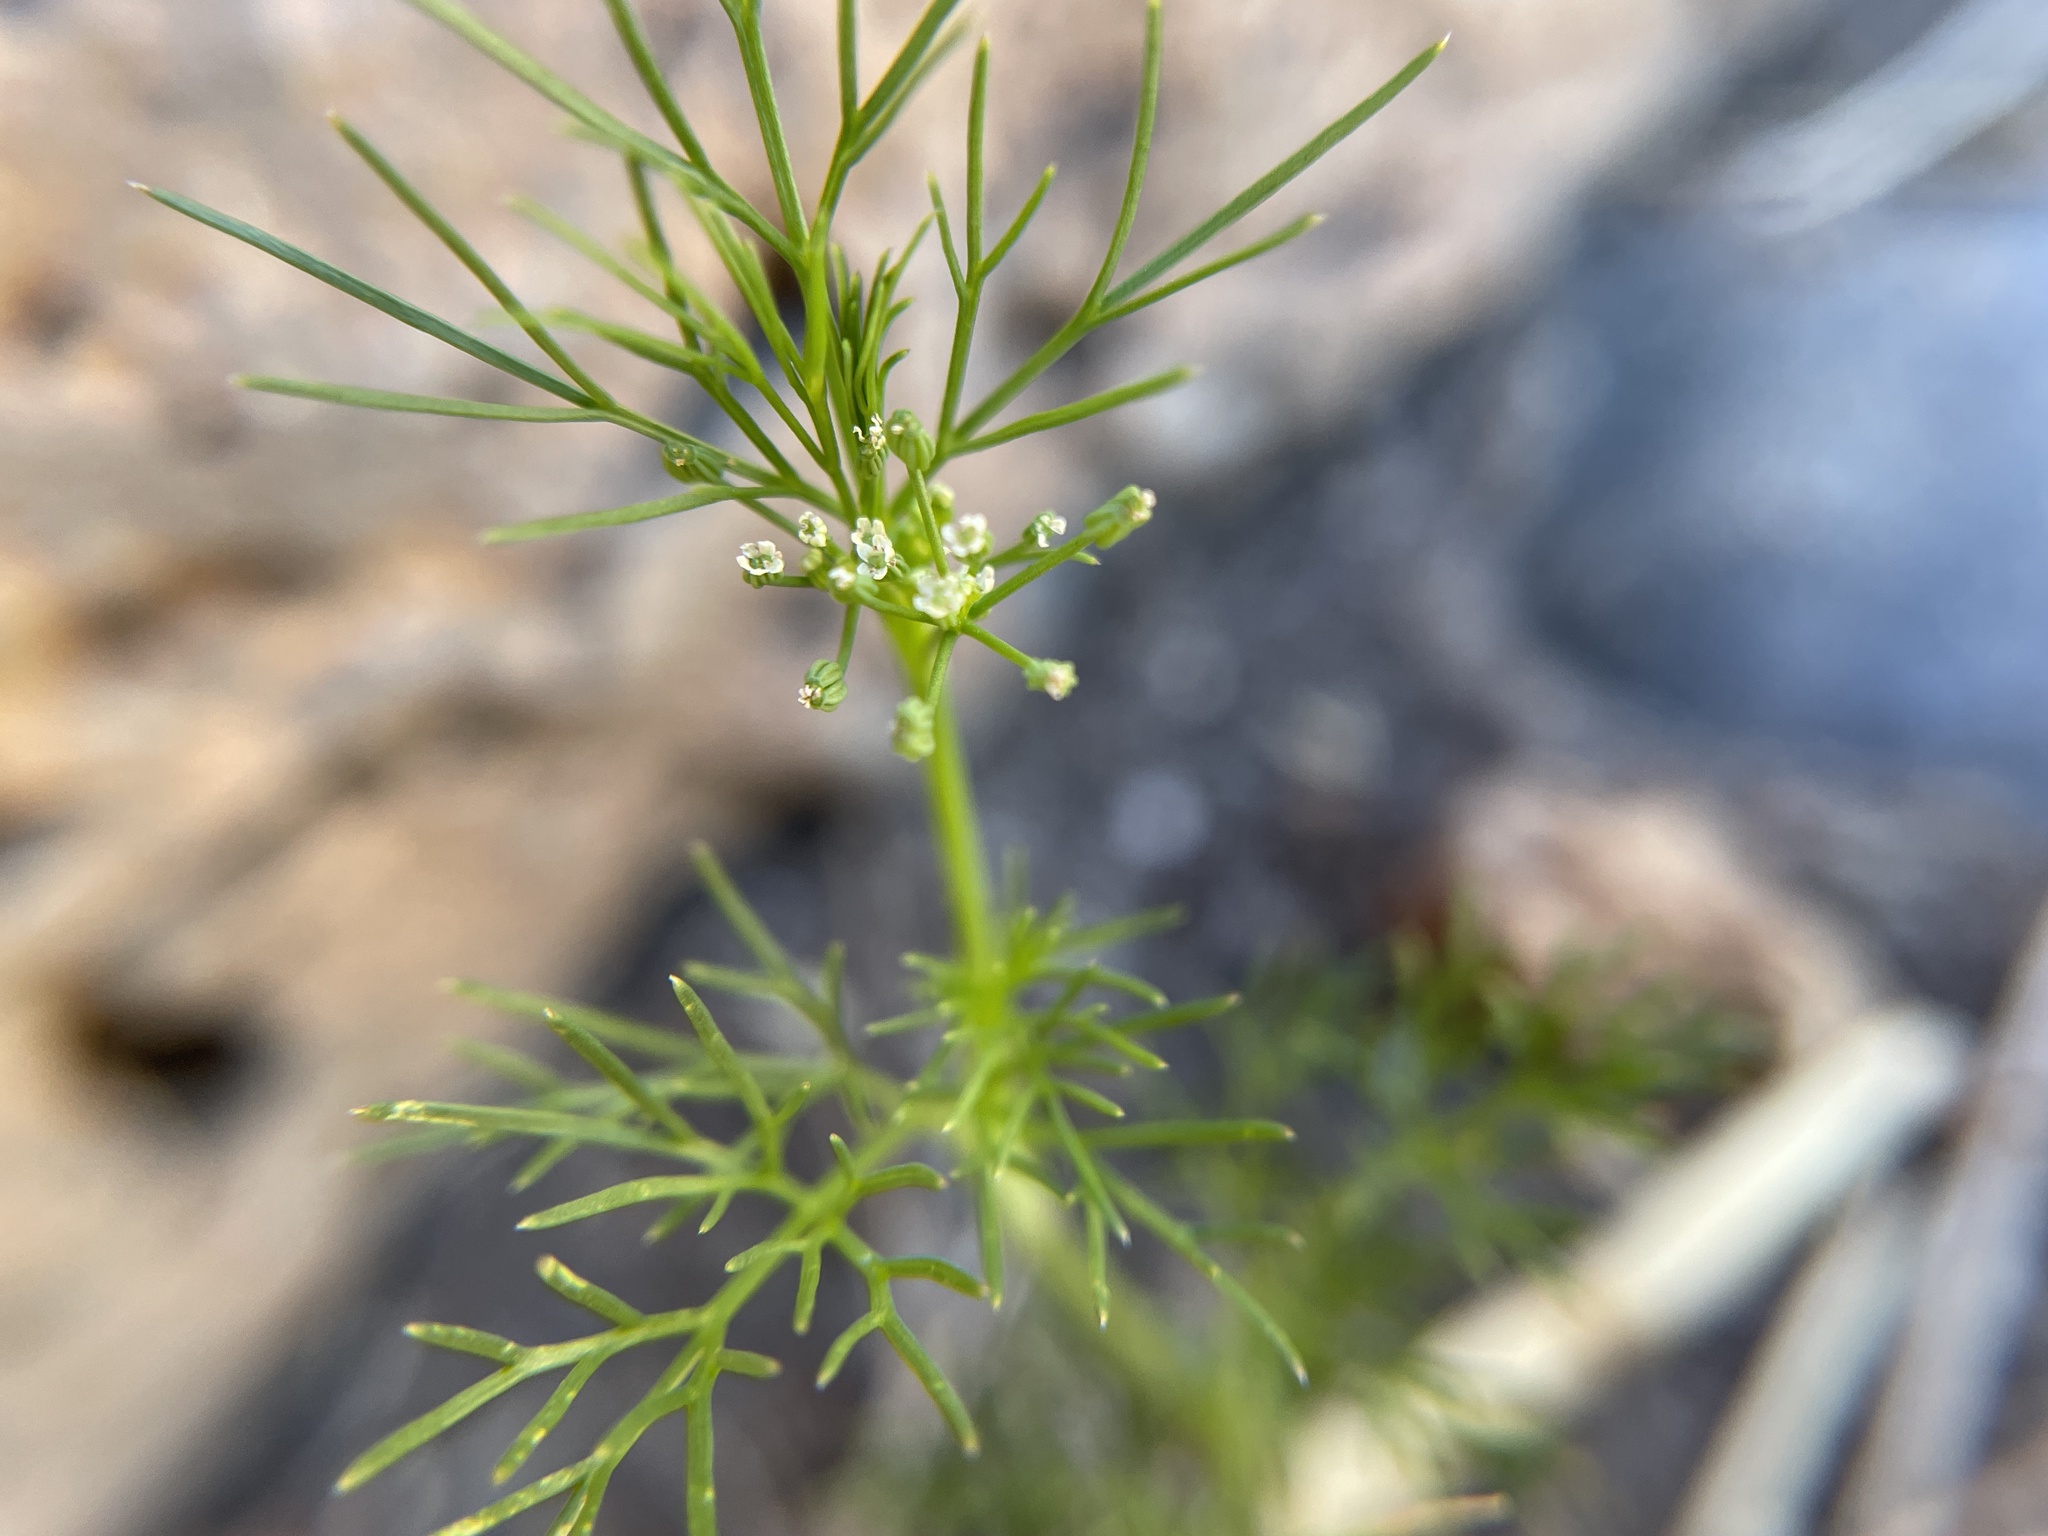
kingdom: Plantae
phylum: Tracheophyta
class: Magnoliopsida
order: Apiales
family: Apiaceae
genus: Cyclospermum
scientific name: Cyclospermum leptophyllum
